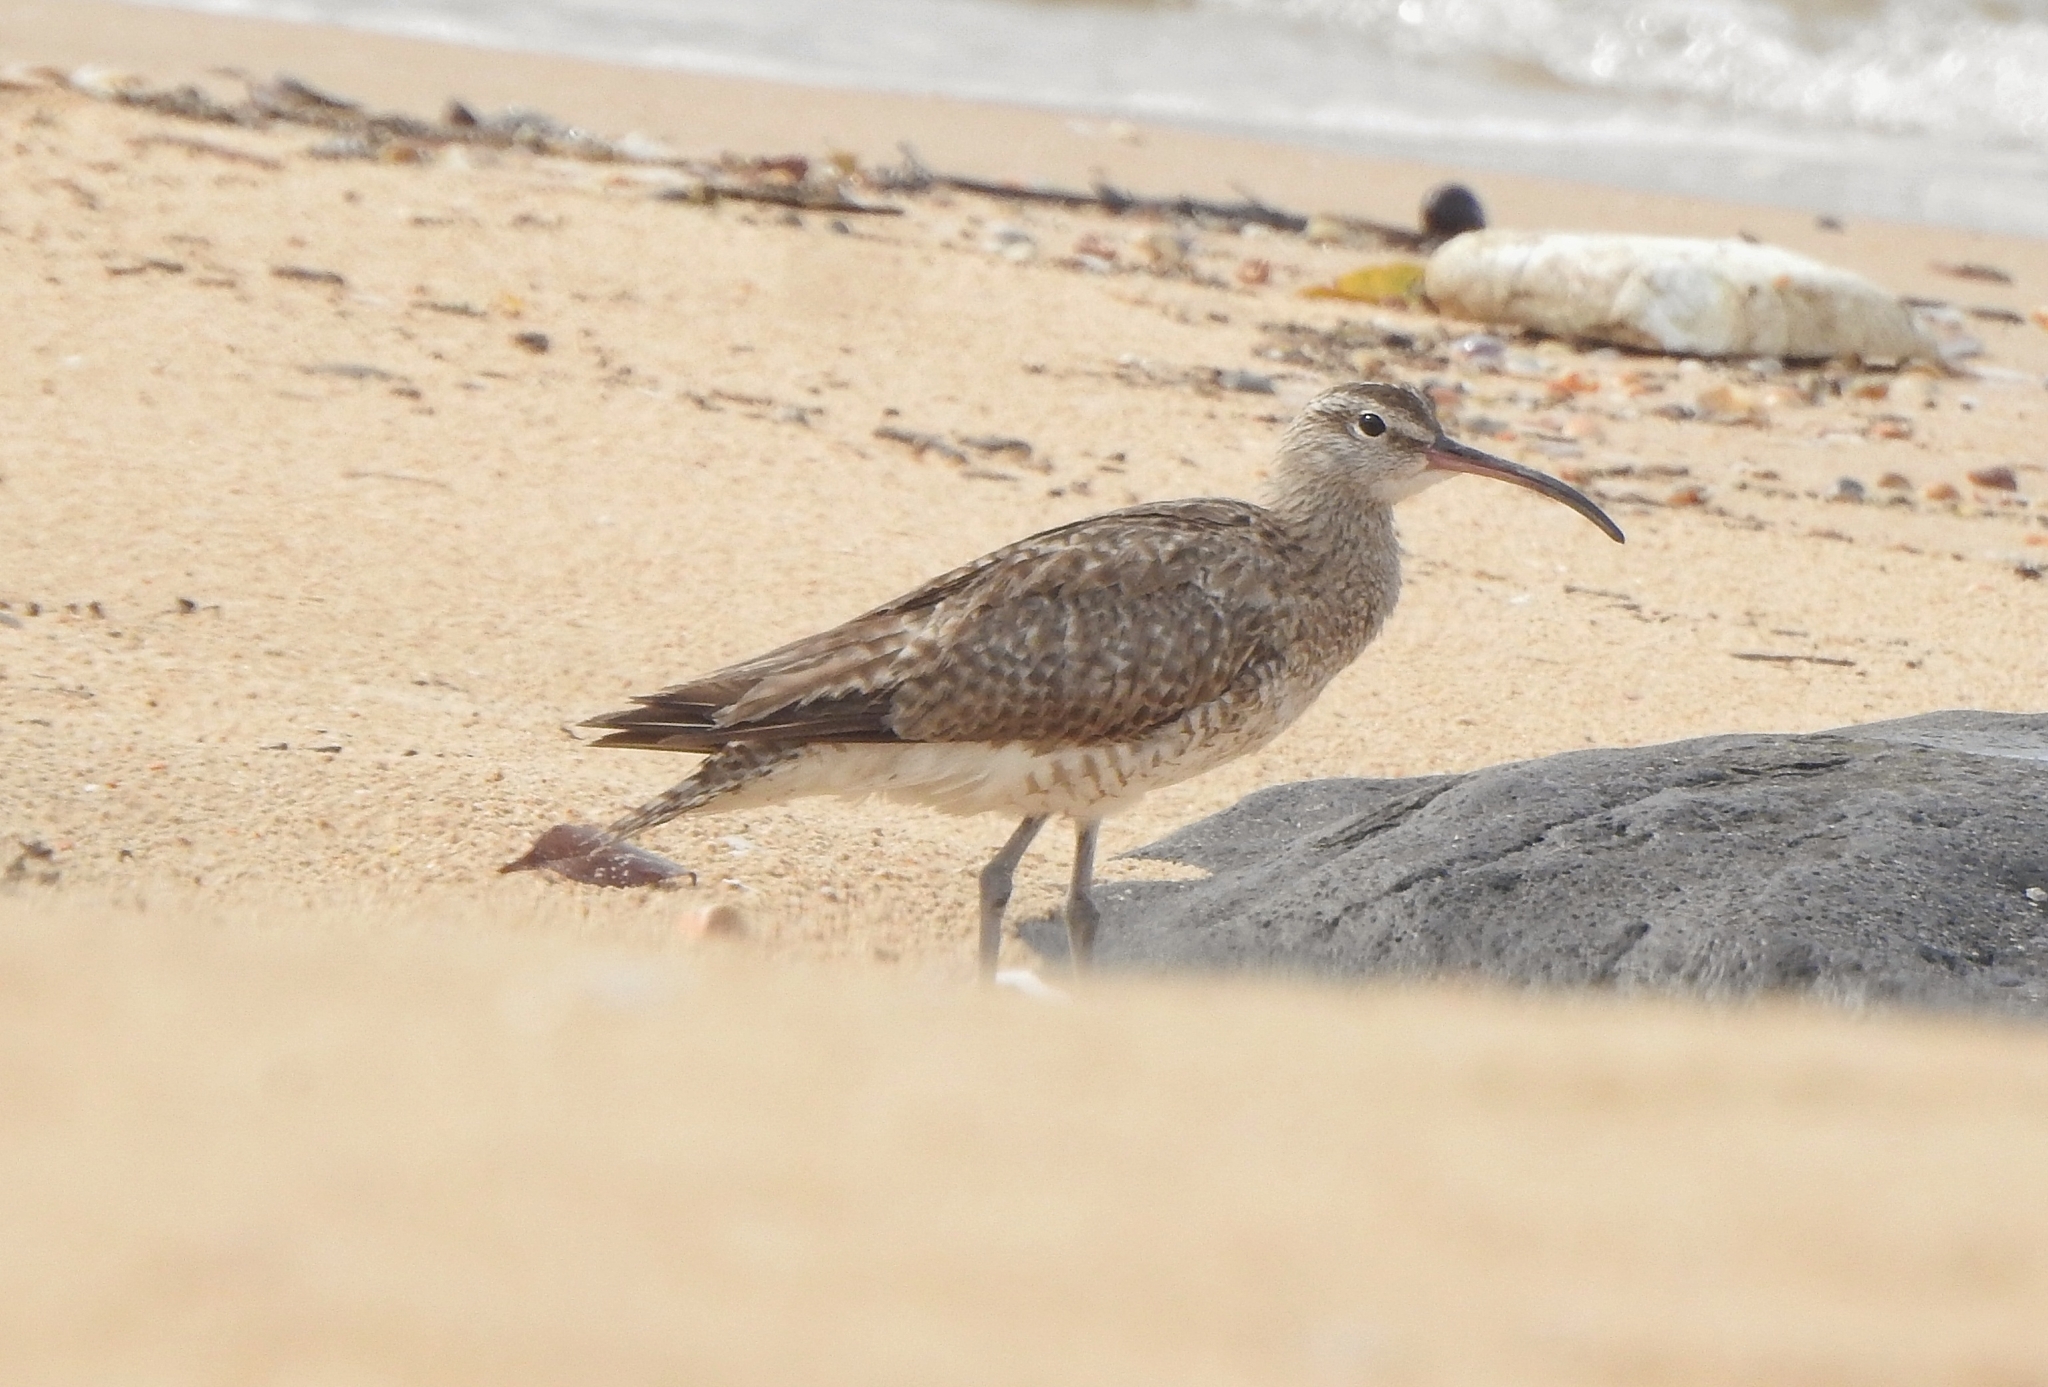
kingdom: Animalia
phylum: Chordata
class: Aves
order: Charadriiformes
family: Scolopacidae
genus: Numenius
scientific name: Numenius phaeopus
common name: Whimbrel
